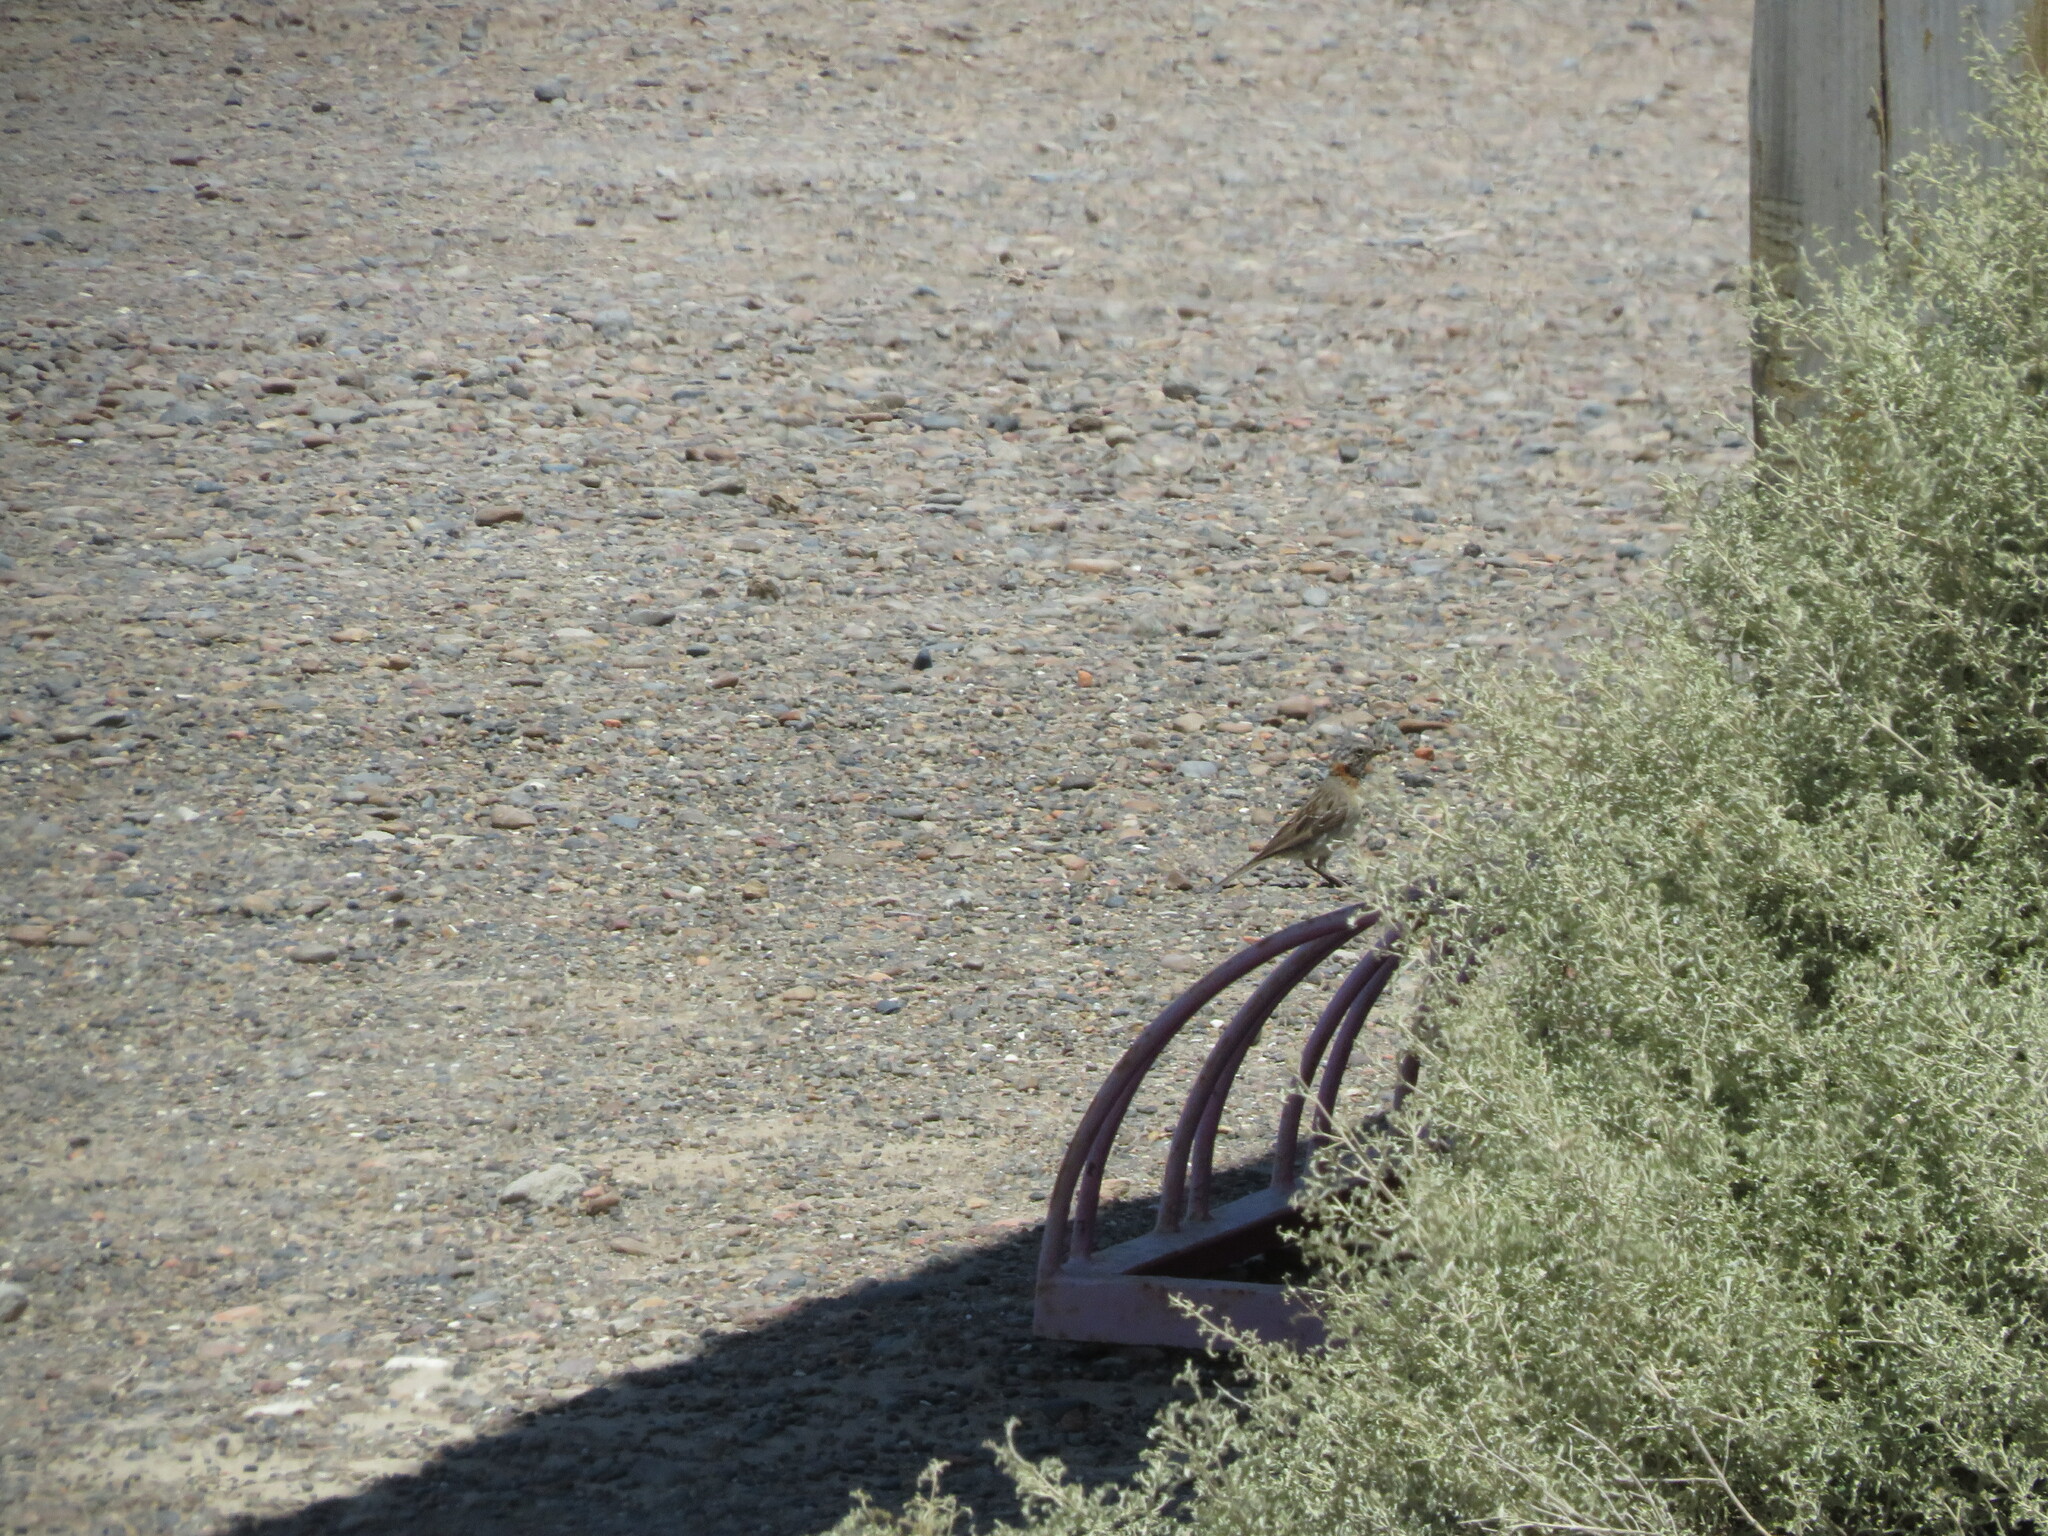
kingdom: Animalia
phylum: Chordata
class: Aves
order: Passeriformes
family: Passerellidae
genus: Zonotrichia
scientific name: Zonotrichia capensis
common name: Rufous-collared sparrow
